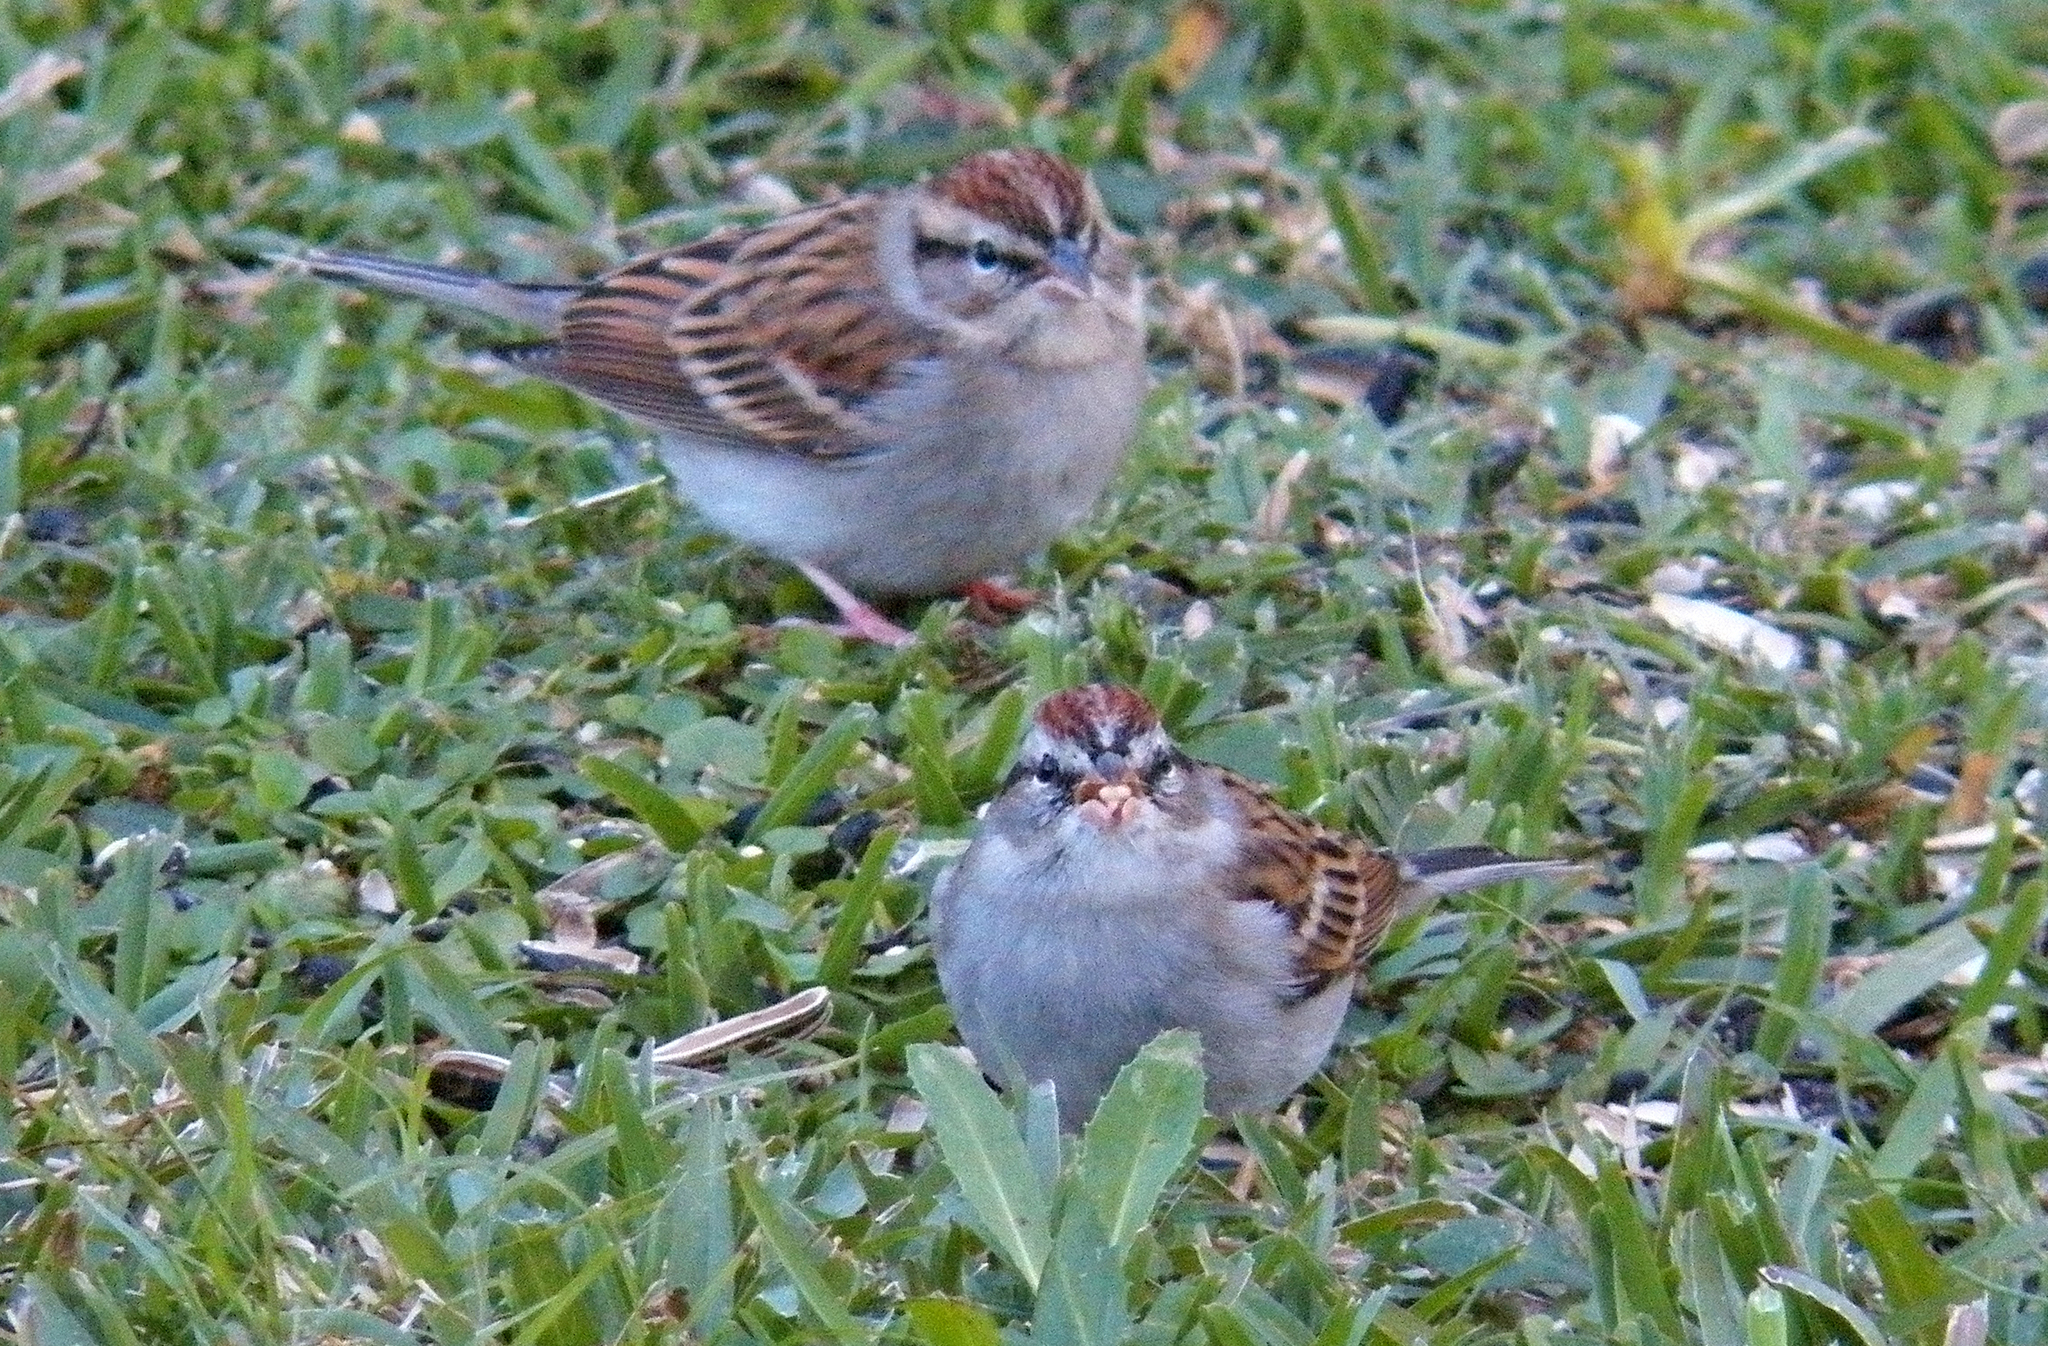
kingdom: Animalia
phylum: Chordata
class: Aves
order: Passeriformes
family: Passerellidae
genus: Spizella
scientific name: Spizella passerina
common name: Chipping sparrow
